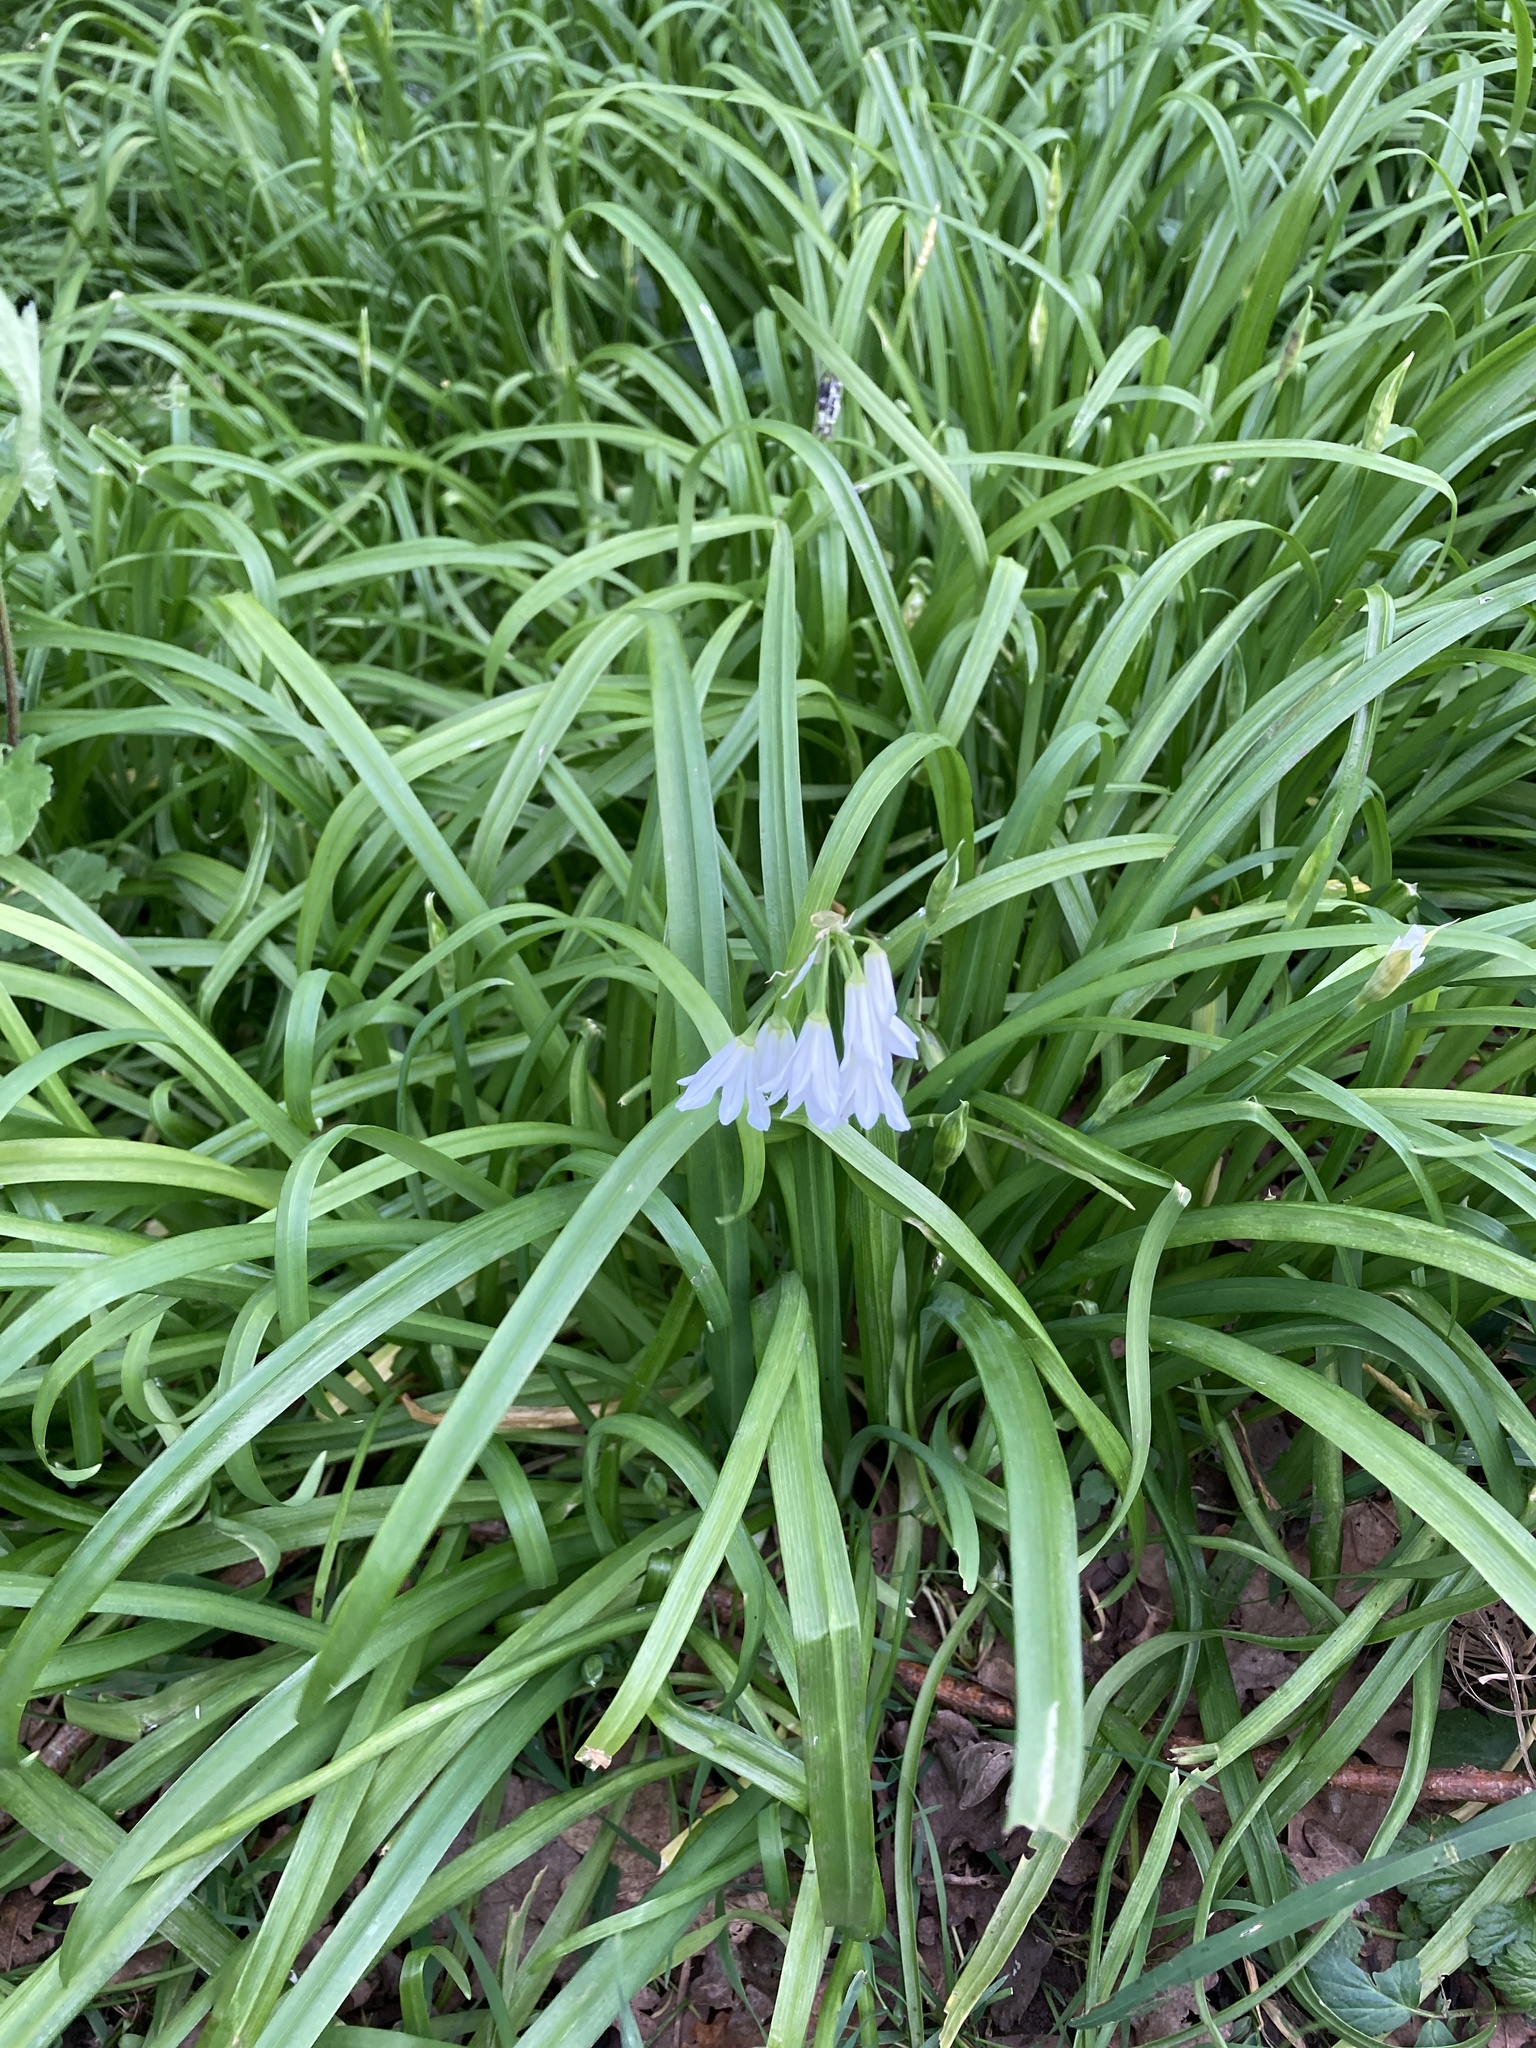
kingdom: Plantae
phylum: Tracheophyta
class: Liliopsida
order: Asparagales
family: Amaryllidaceae
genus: Allium
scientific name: Allium triquetrum
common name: Three-cornered garlic
